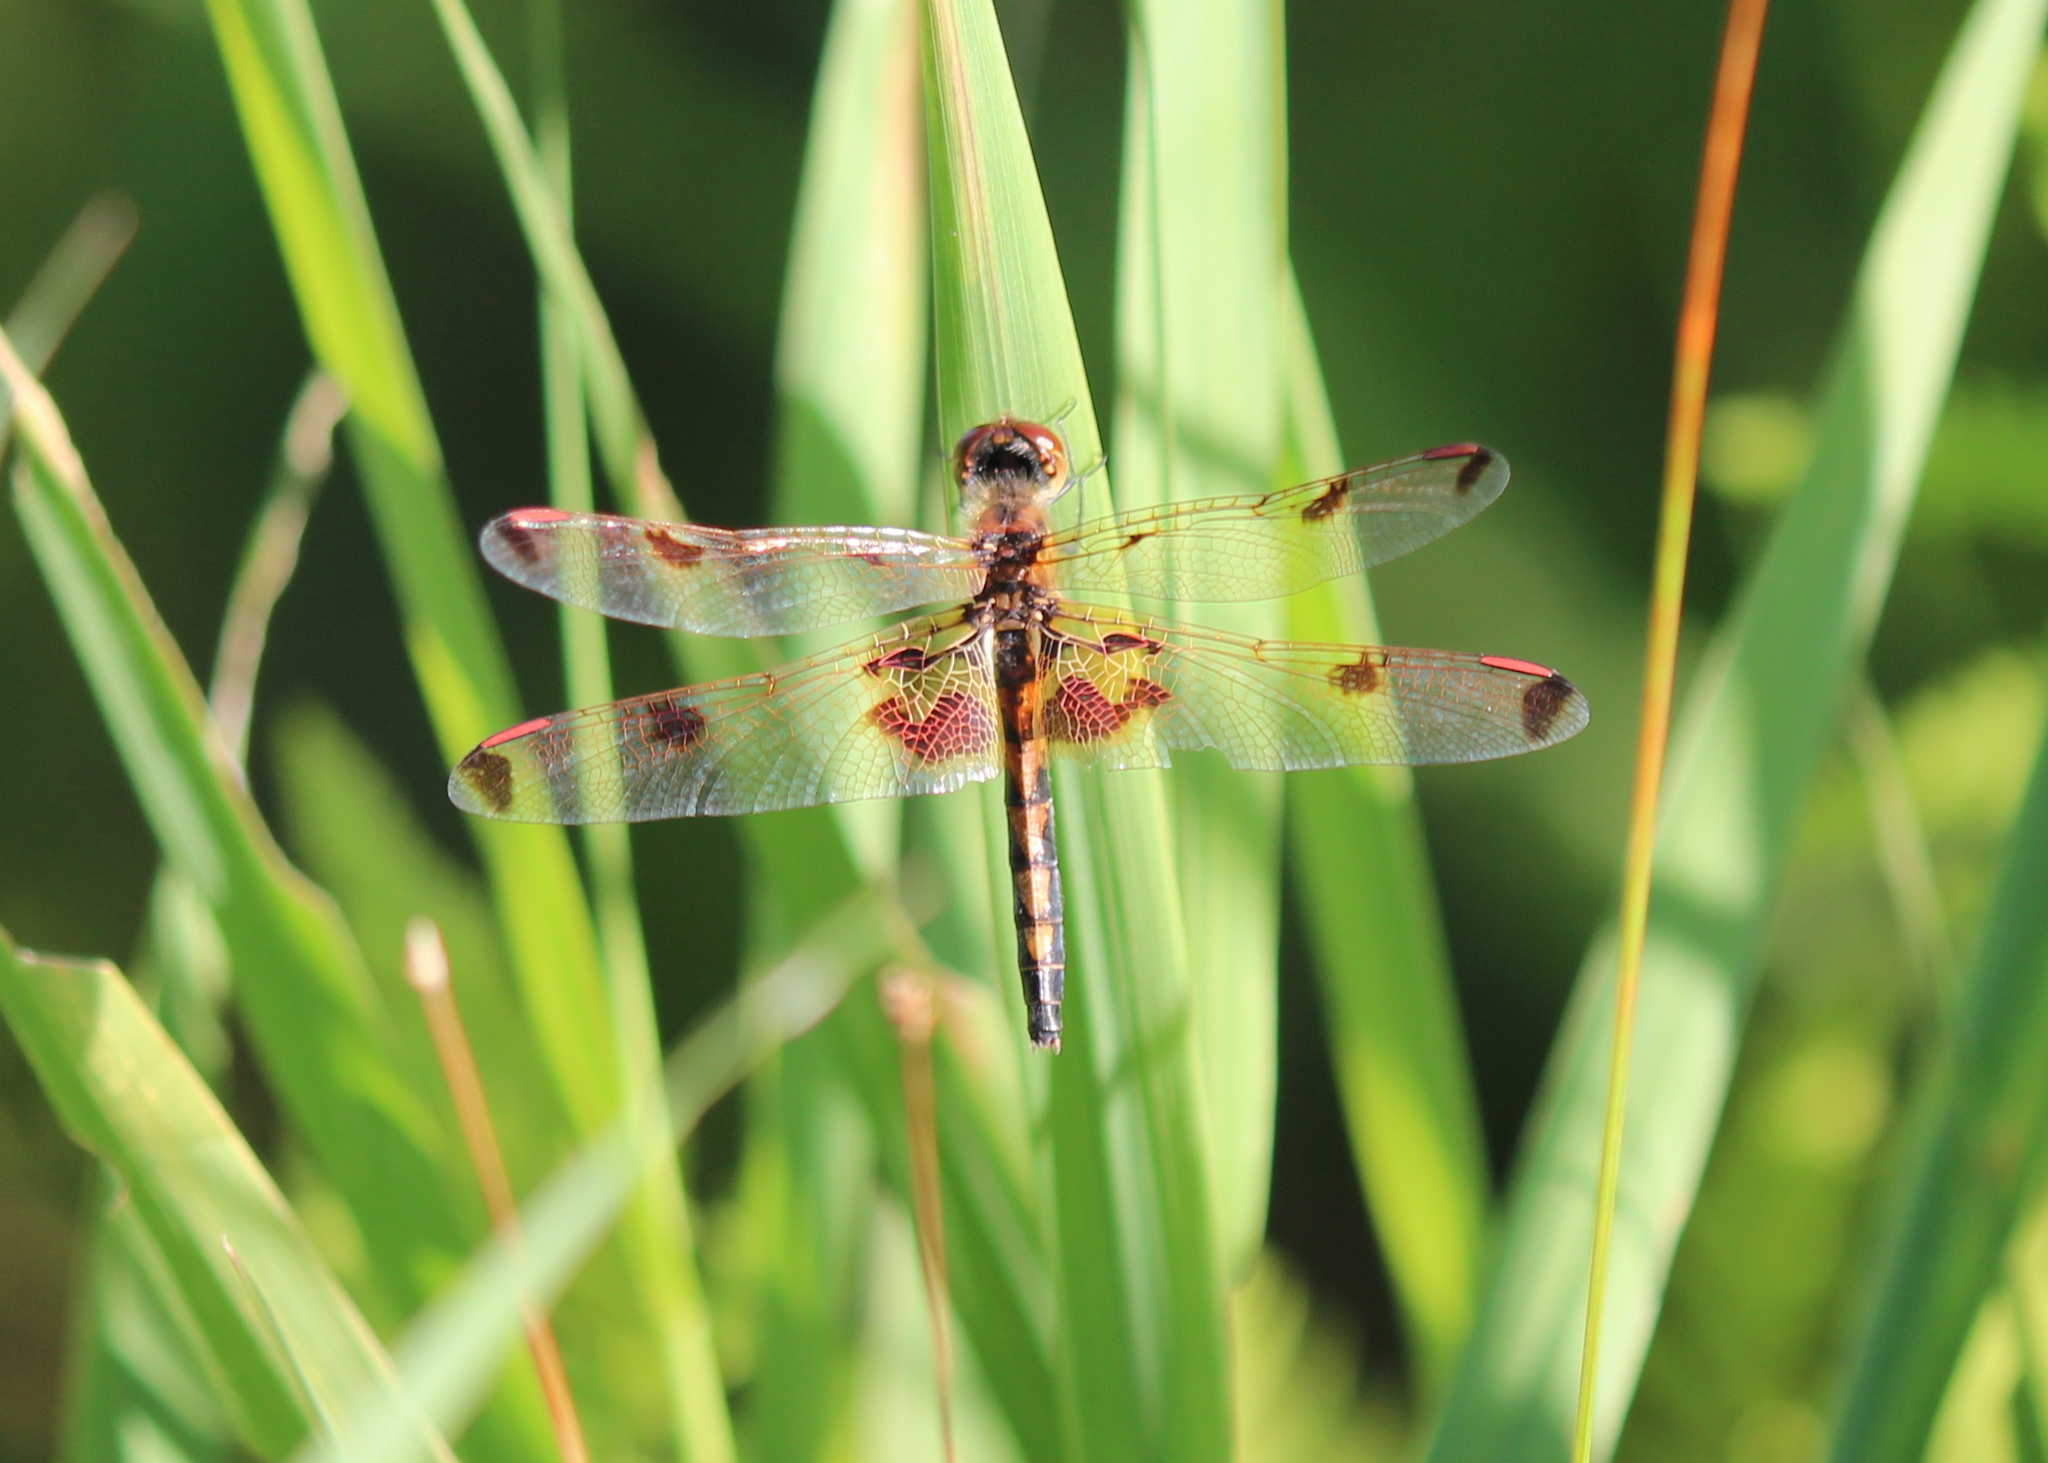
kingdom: Animalia
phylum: Arthropoda
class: Insecta
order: Odonata
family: Libellulidae
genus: Celithemis
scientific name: Celithemis elisa
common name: Calico pennant
